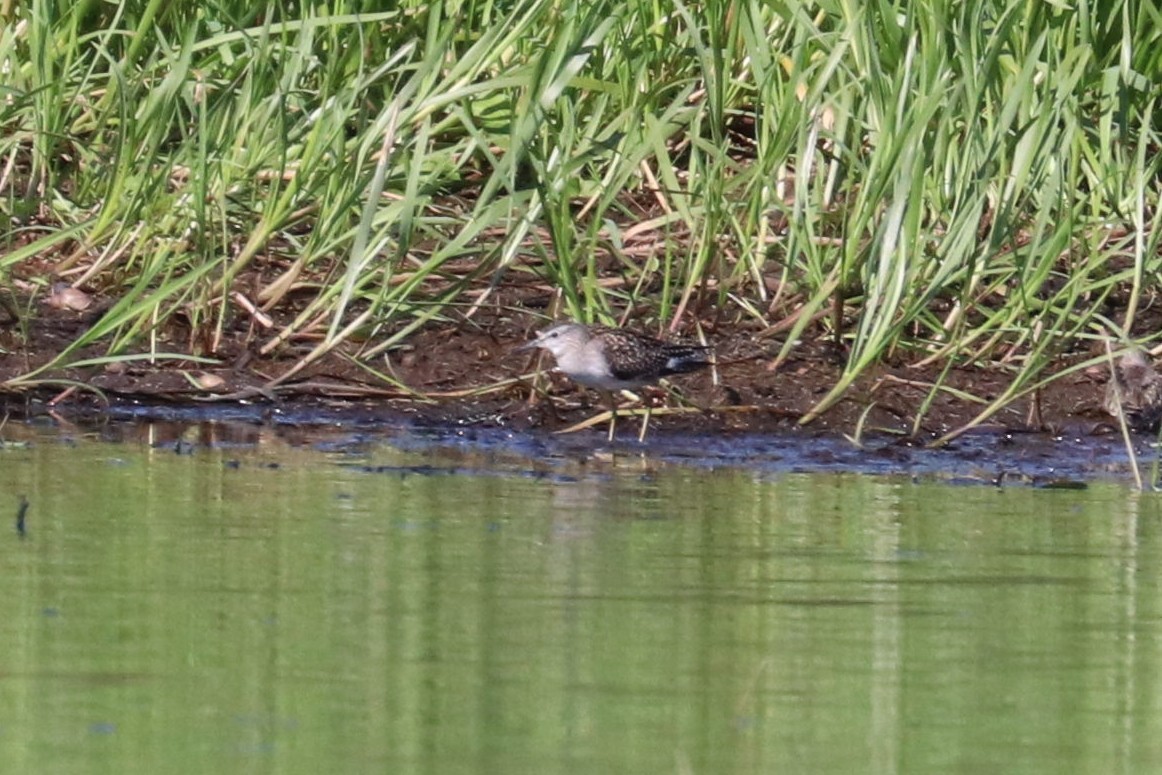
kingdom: Animalia
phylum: Chordata
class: Aves
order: Charadriiformes
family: Scolopacidae
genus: Tringa
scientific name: Tringa glareola
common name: Wood sandpiper
